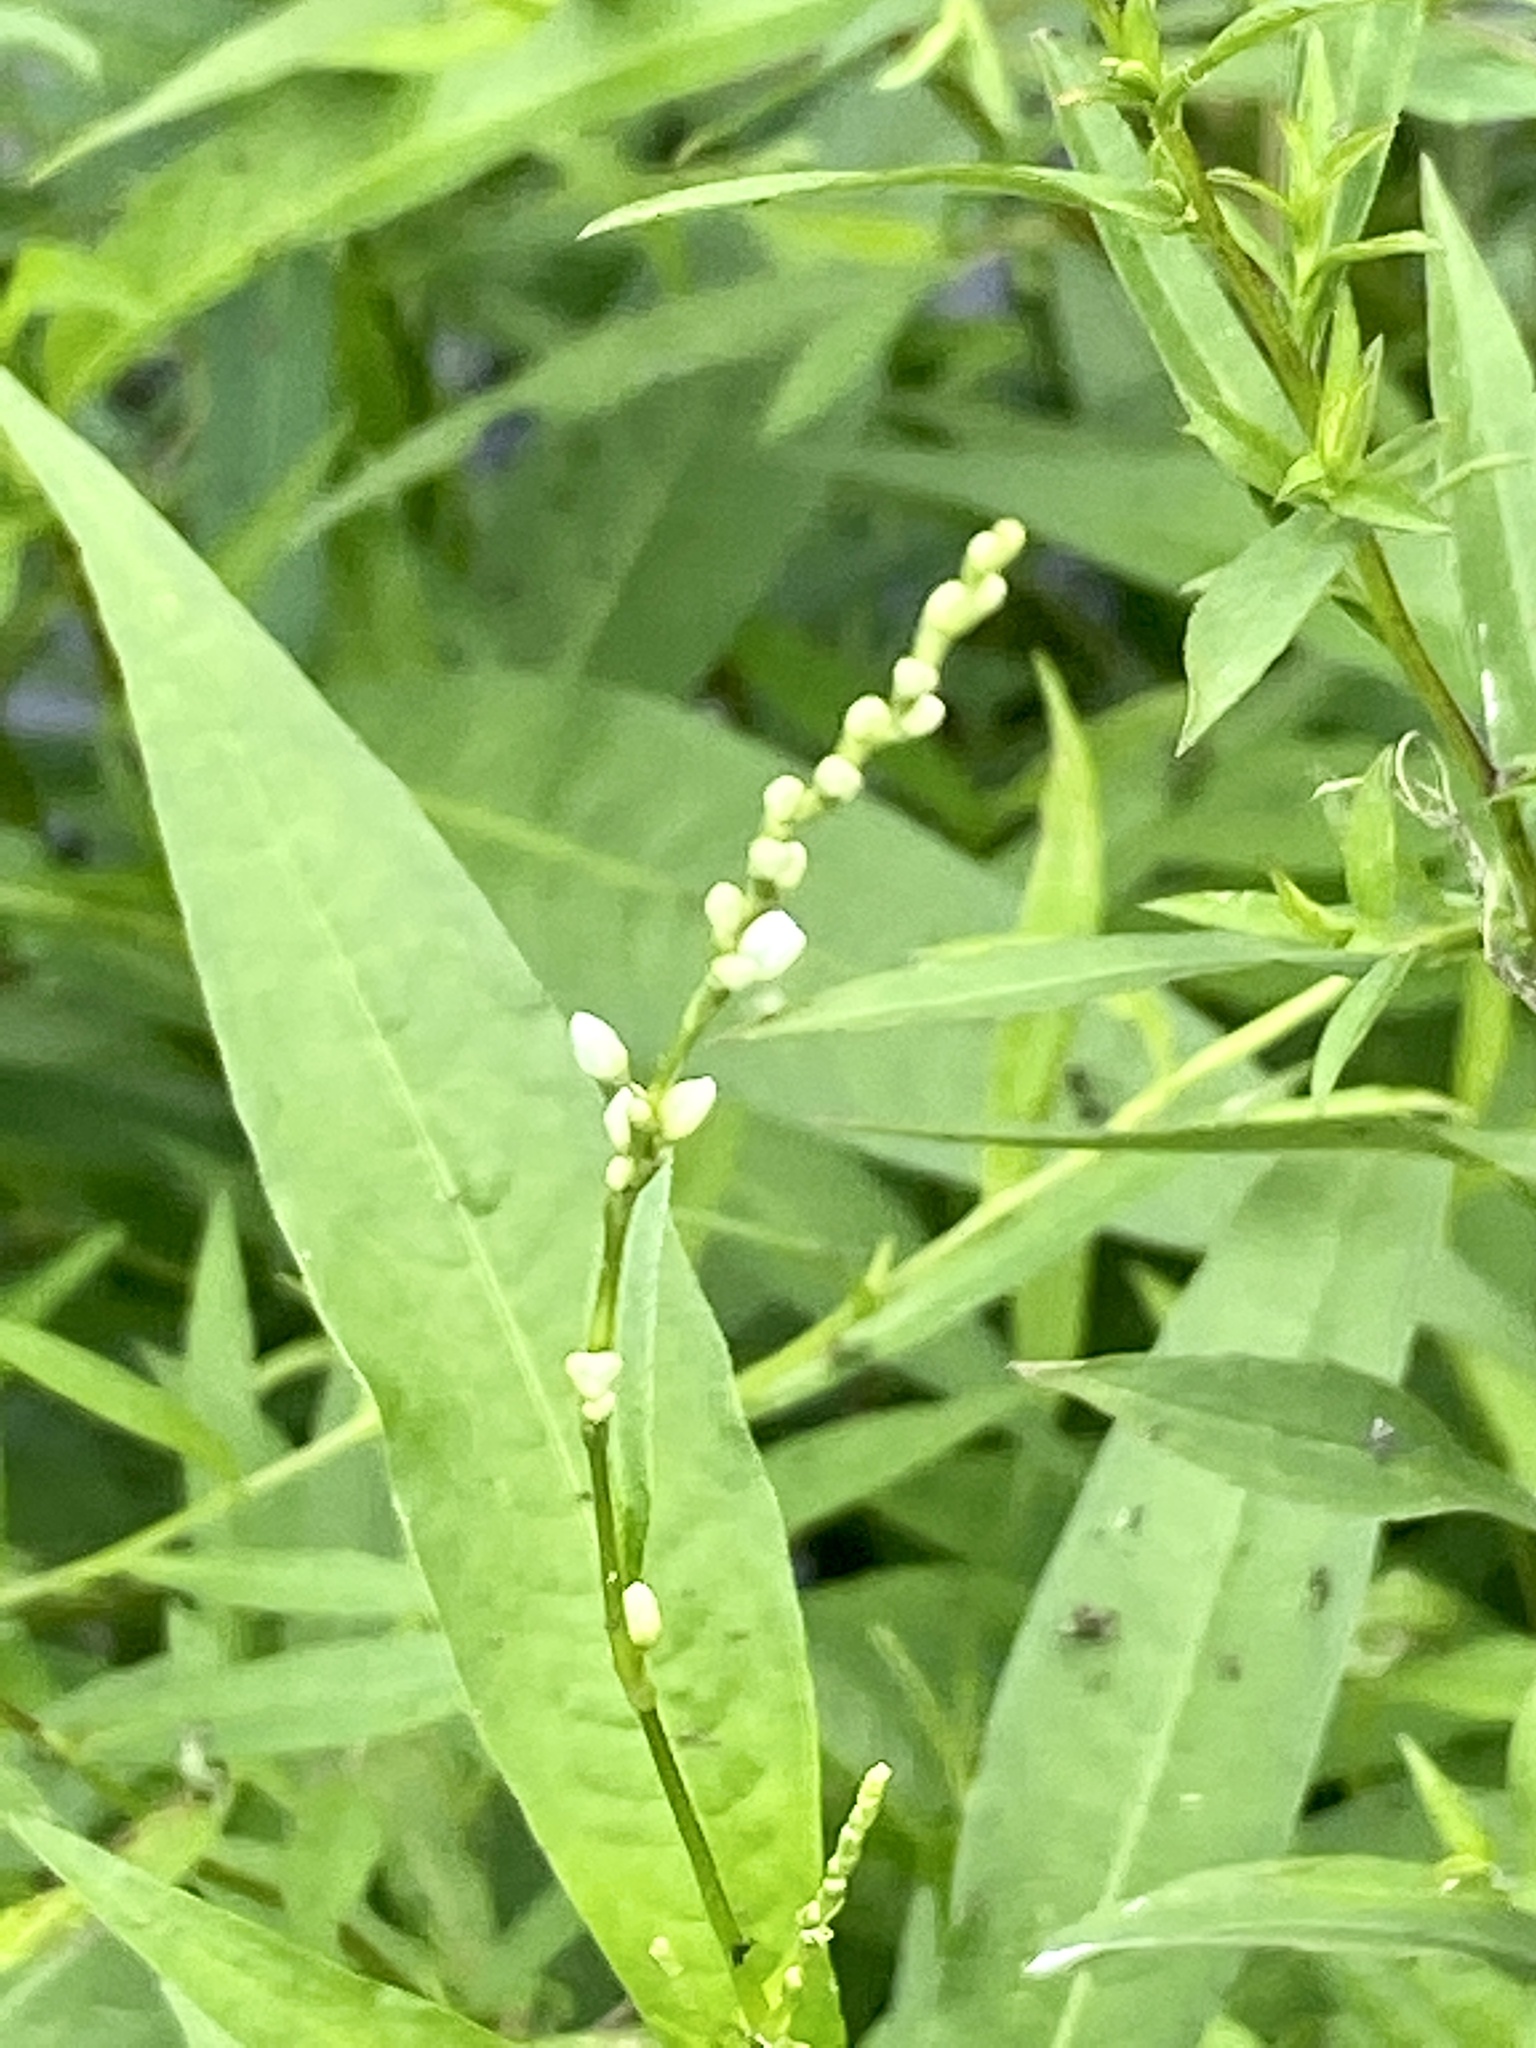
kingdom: Plantae
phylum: Tracheophyta
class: Magnoliopsida
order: Caryophyllales
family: Polygonaceae
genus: Persicaria
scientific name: Persicaria punctata
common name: Dotted smartweed
